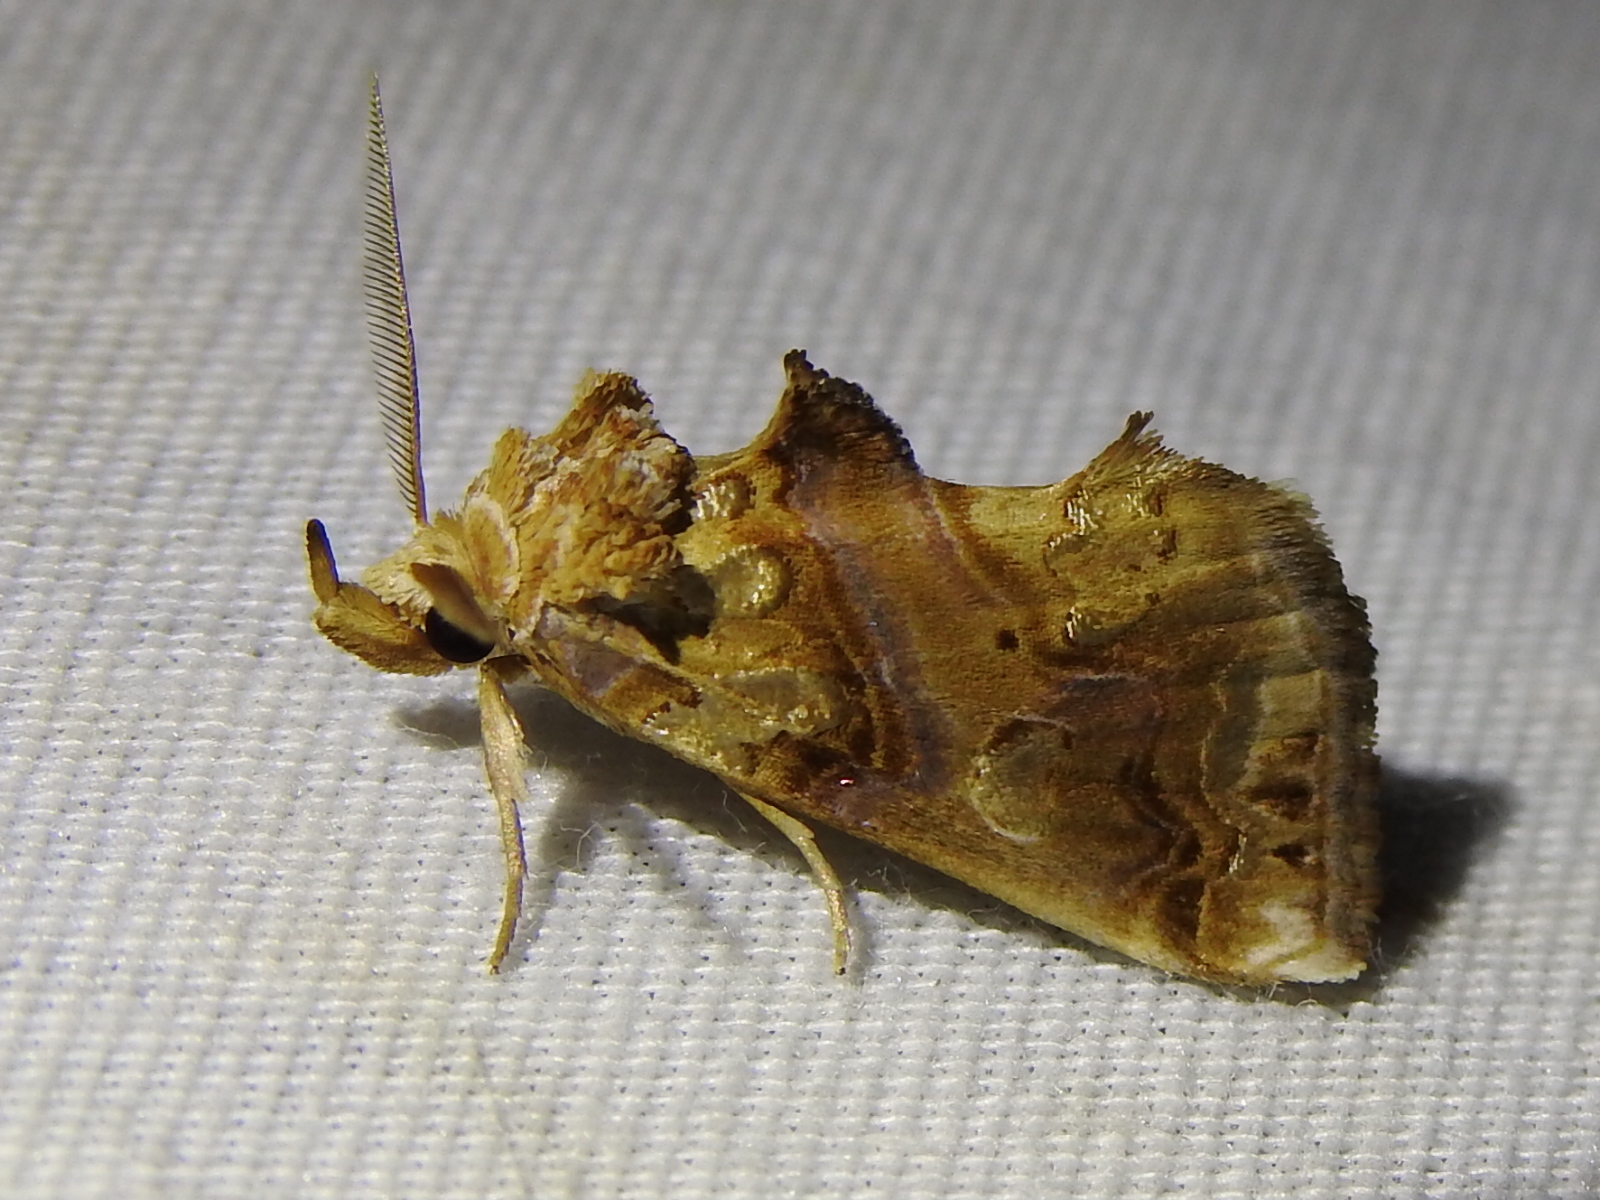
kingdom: Animalia
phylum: Arthropoda
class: Insecta
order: Lepidoptera
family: Erebidae
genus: Plusiodonta
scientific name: Plusiodonta compressipalpis
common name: Moonseed moth
